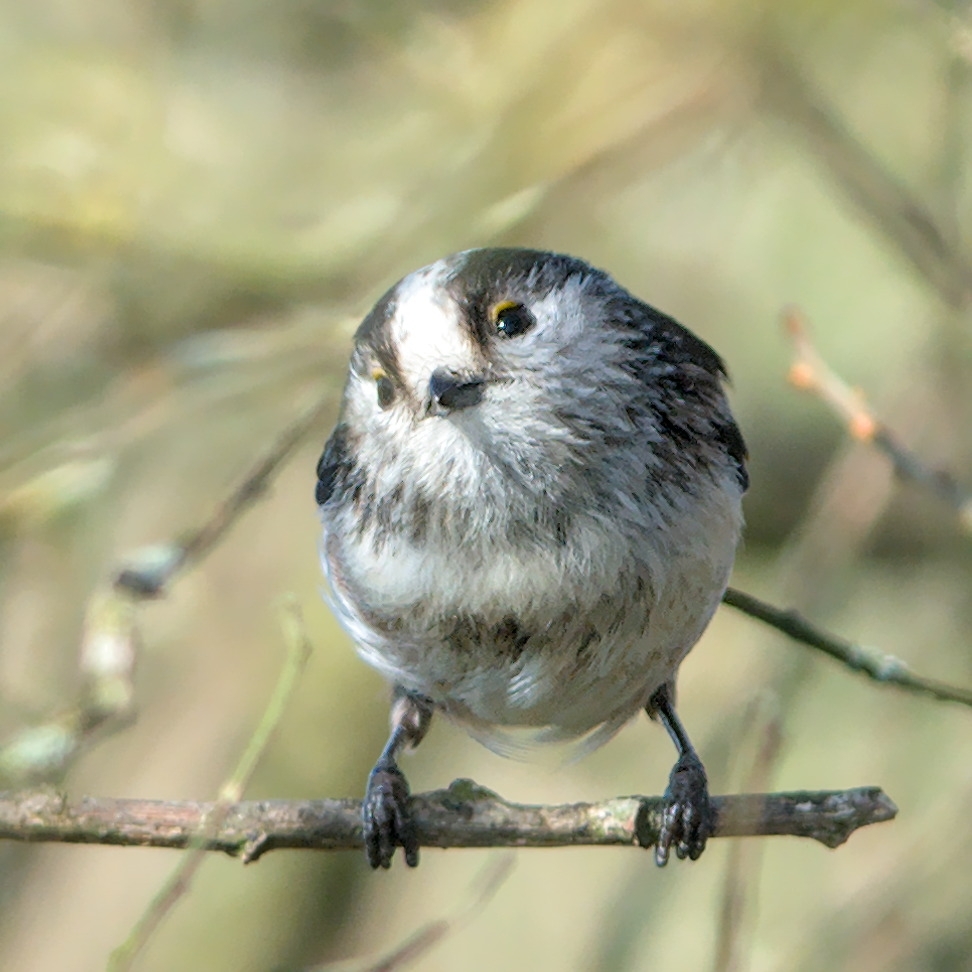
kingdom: Animalia
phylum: Chordata
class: Aves
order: Passeriformes
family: Aegithalidae
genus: Aegithalos
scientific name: Aegithalos caudatus
